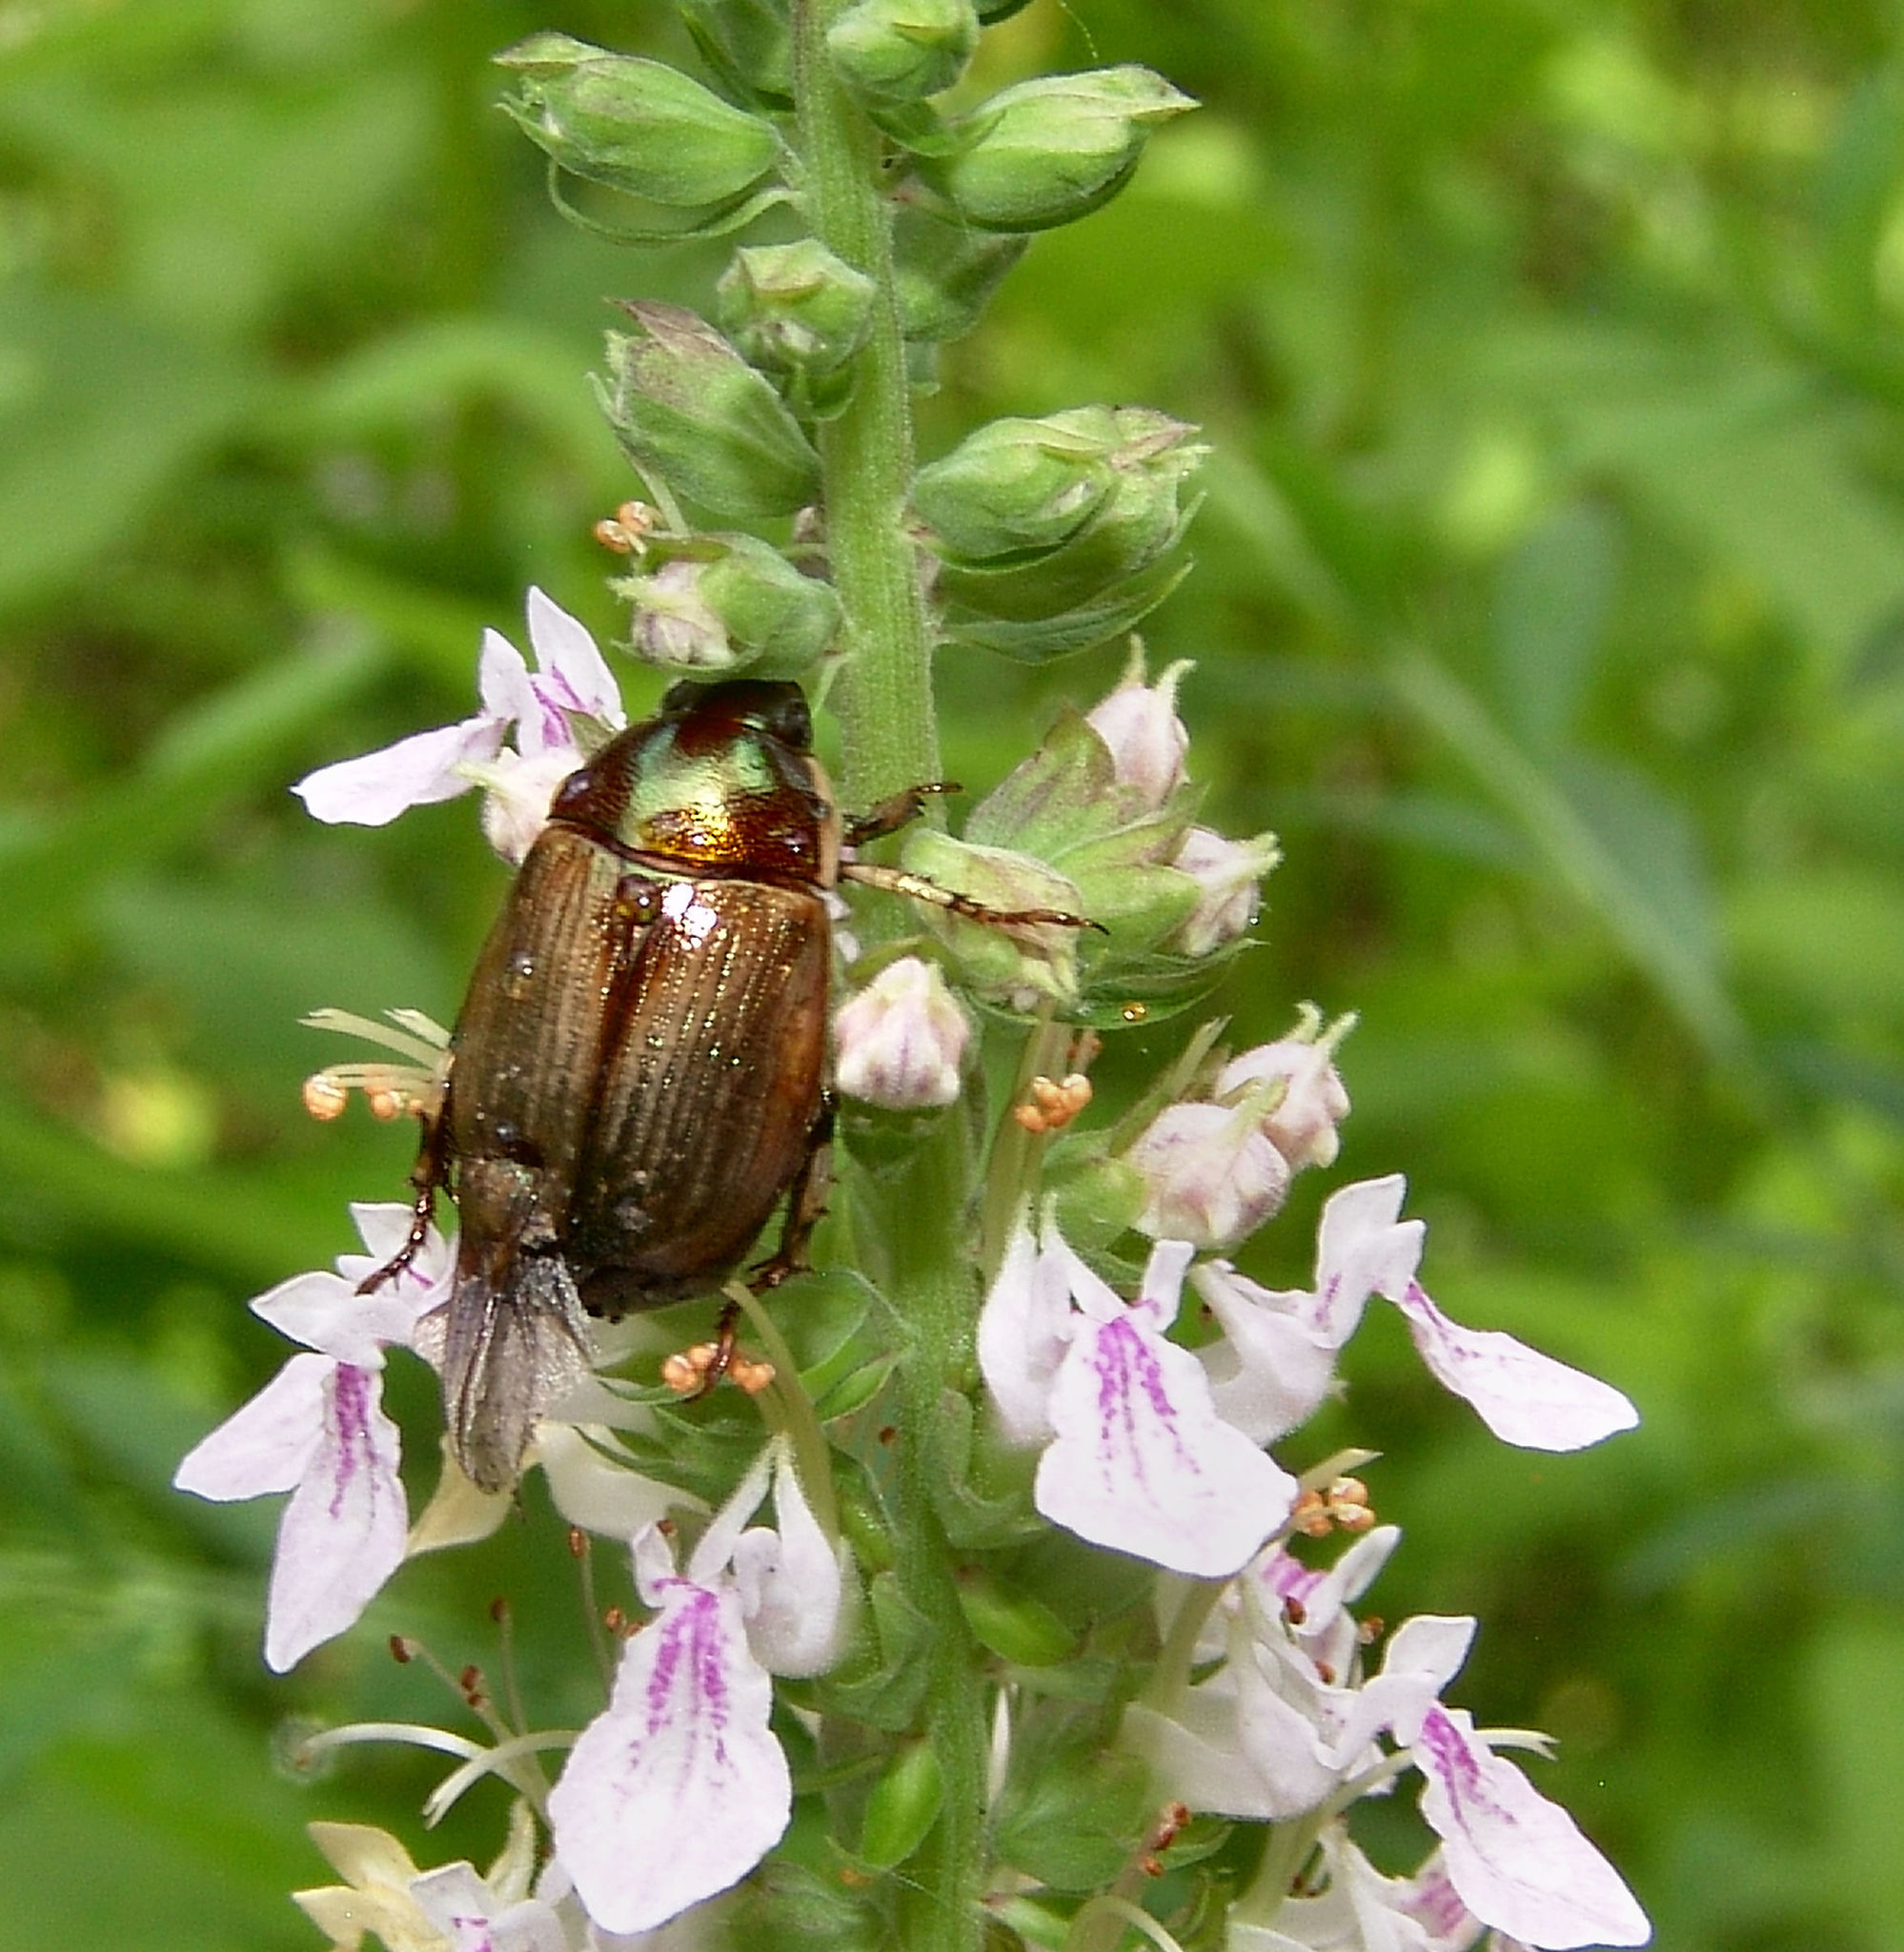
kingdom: Animalia
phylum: Arthropoda
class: Insecta
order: Coleoptera
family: Scarabaeidae
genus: Callistethus
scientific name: Callistethus marginatus
